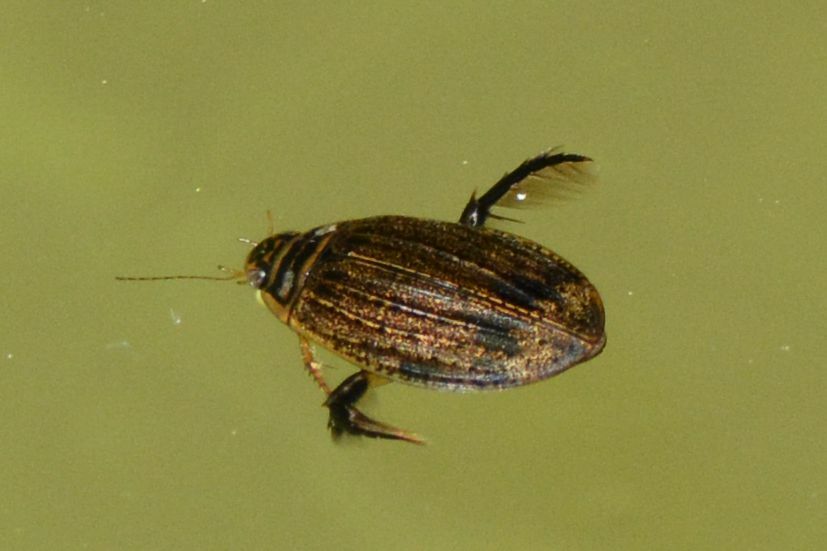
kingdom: Animalia
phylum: Arthropoda
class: Insecta
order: Coleoptera
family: Dytiscidae
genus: Acilius
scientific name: Acilius sulcatus
